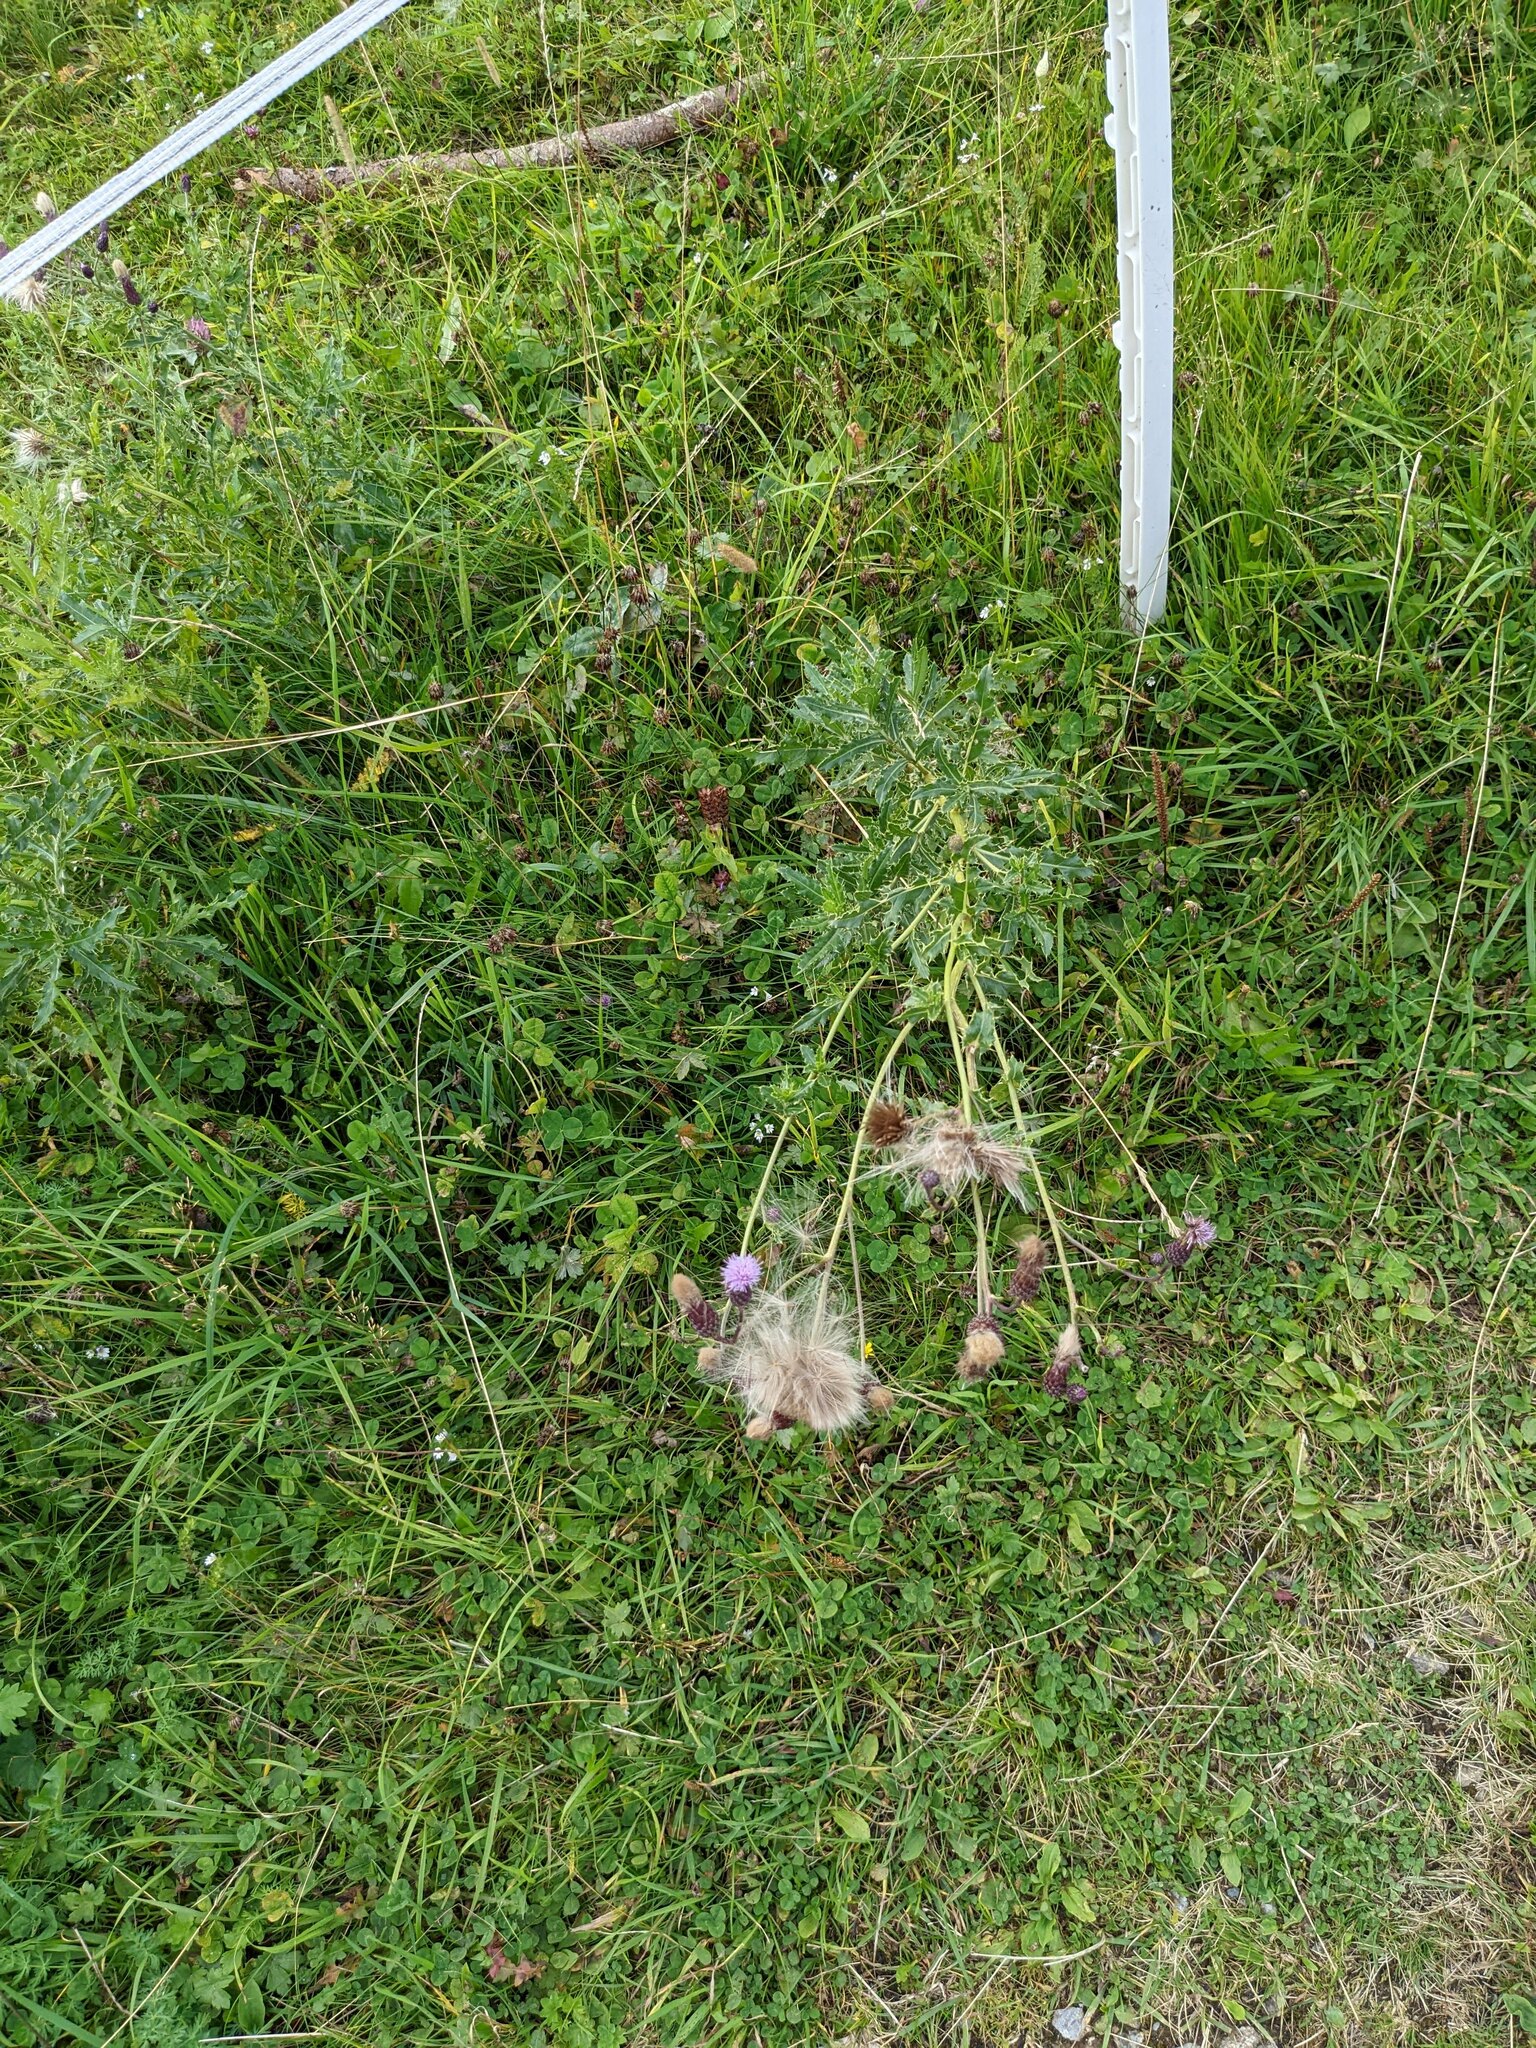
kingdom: Plantae
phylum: Tracheophyta
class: Magnoliopsida
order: Asterales
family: Asteraceae
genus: Cirsium
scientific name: Cirsium arvense
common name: Creeping thistle
